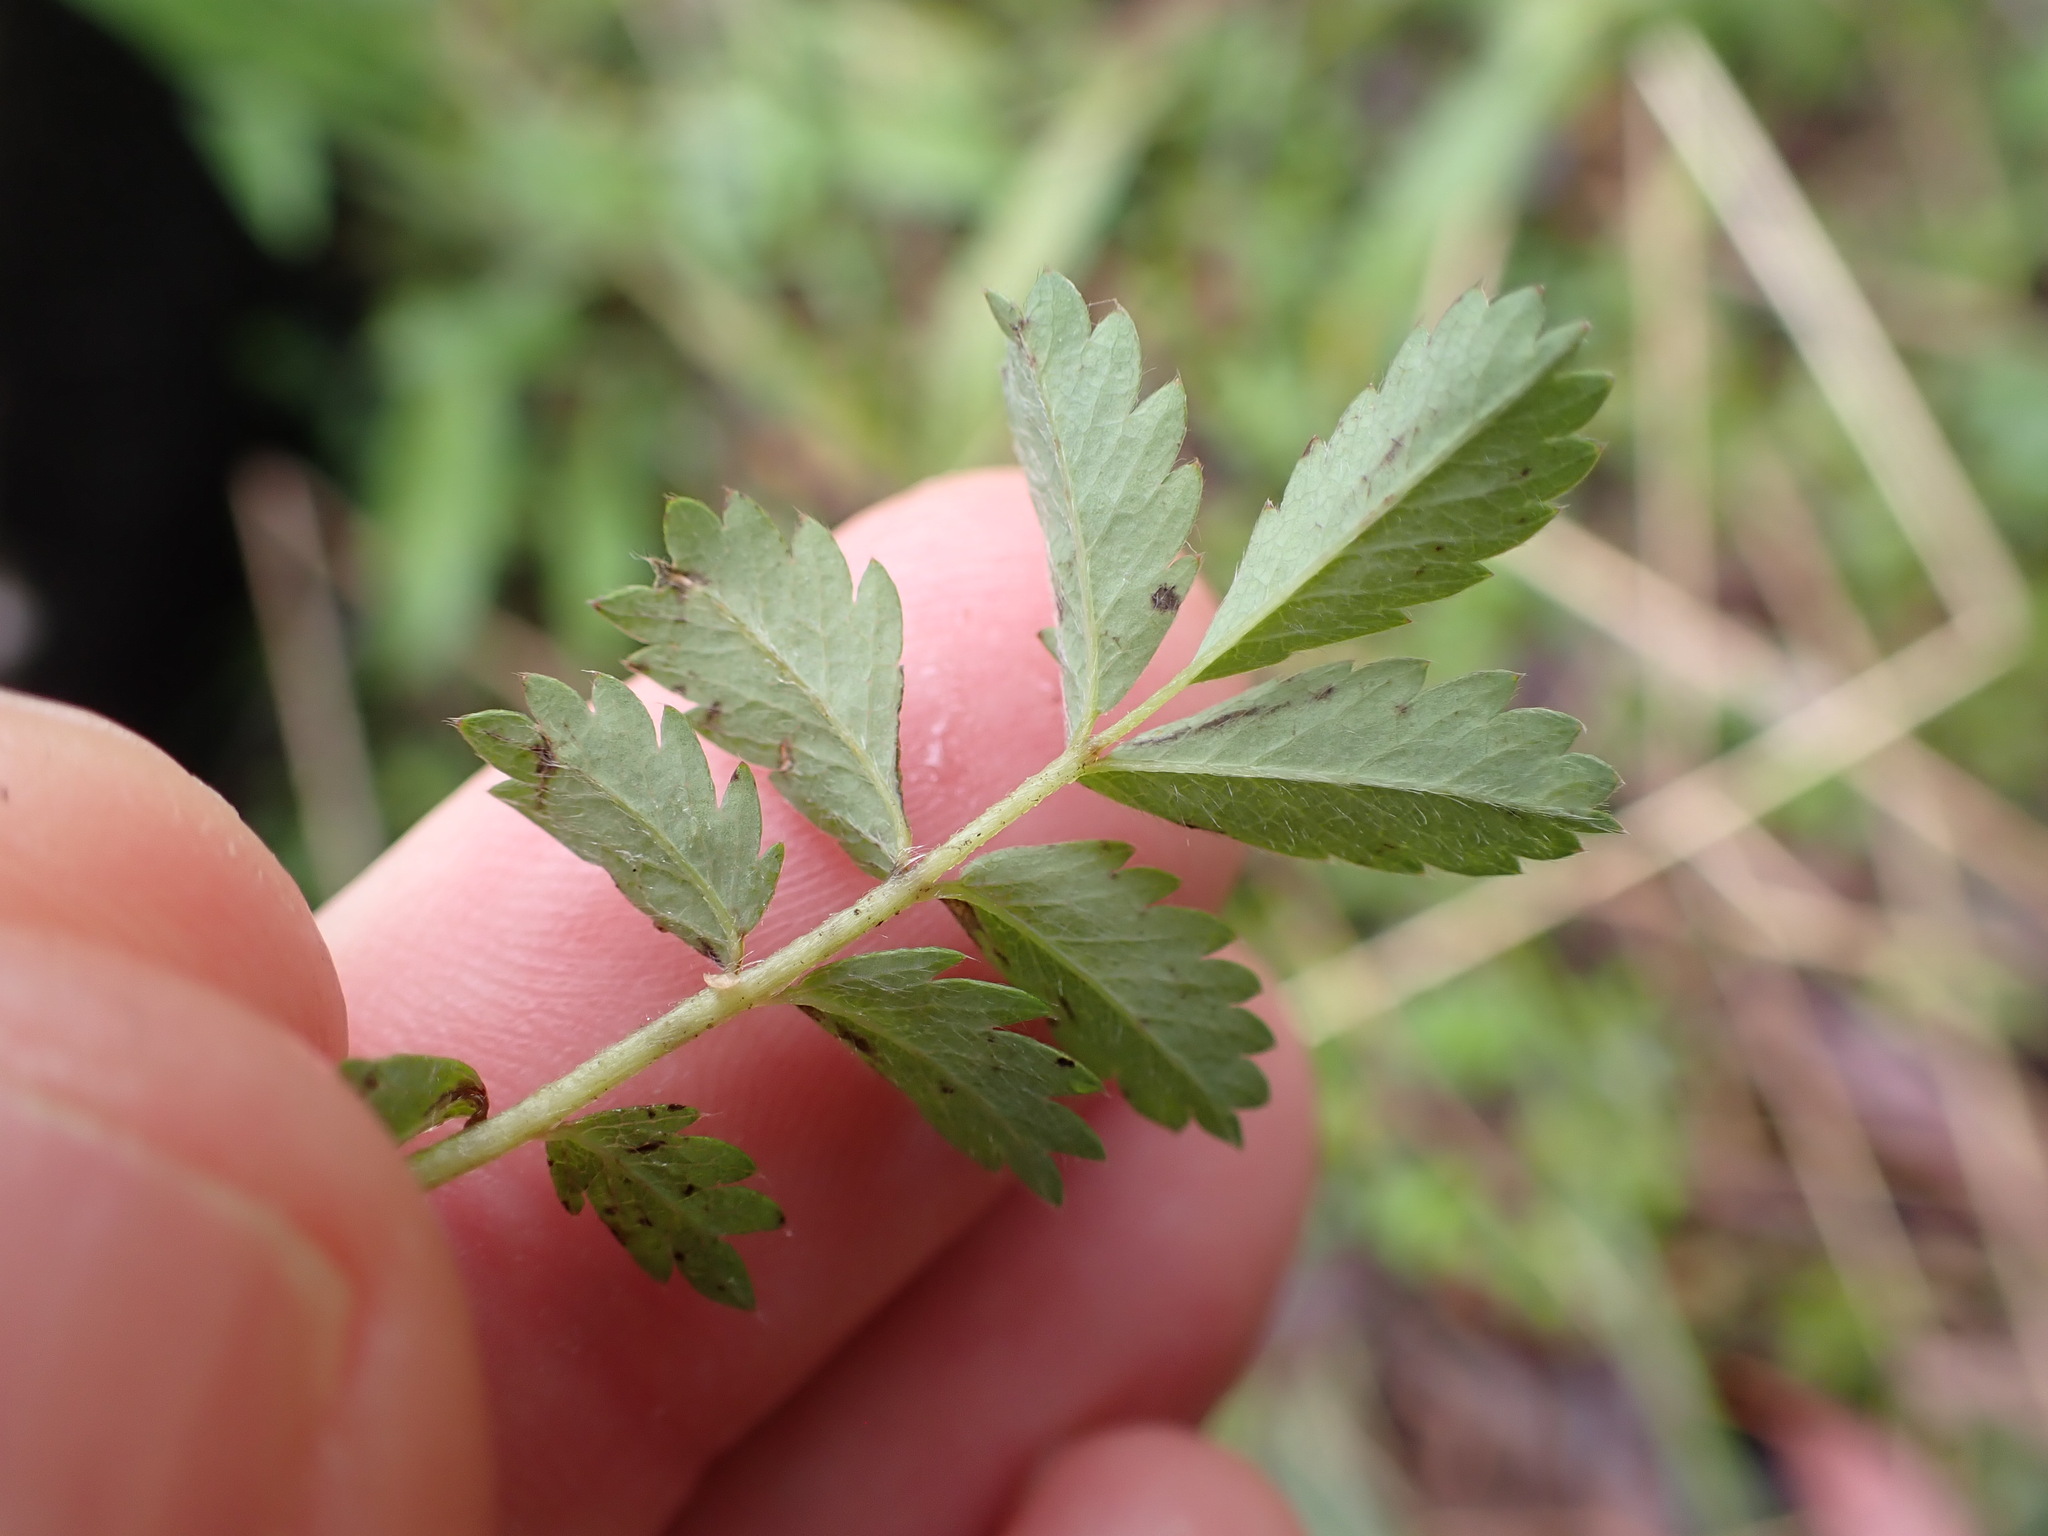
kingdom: Plantae
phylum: Tracheophyta
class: Magnoliopsida
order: Rosales
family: Rosaceae
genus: Acaena
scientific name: Acaena novae-zelandiae
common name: Pirri-pirri-bur
